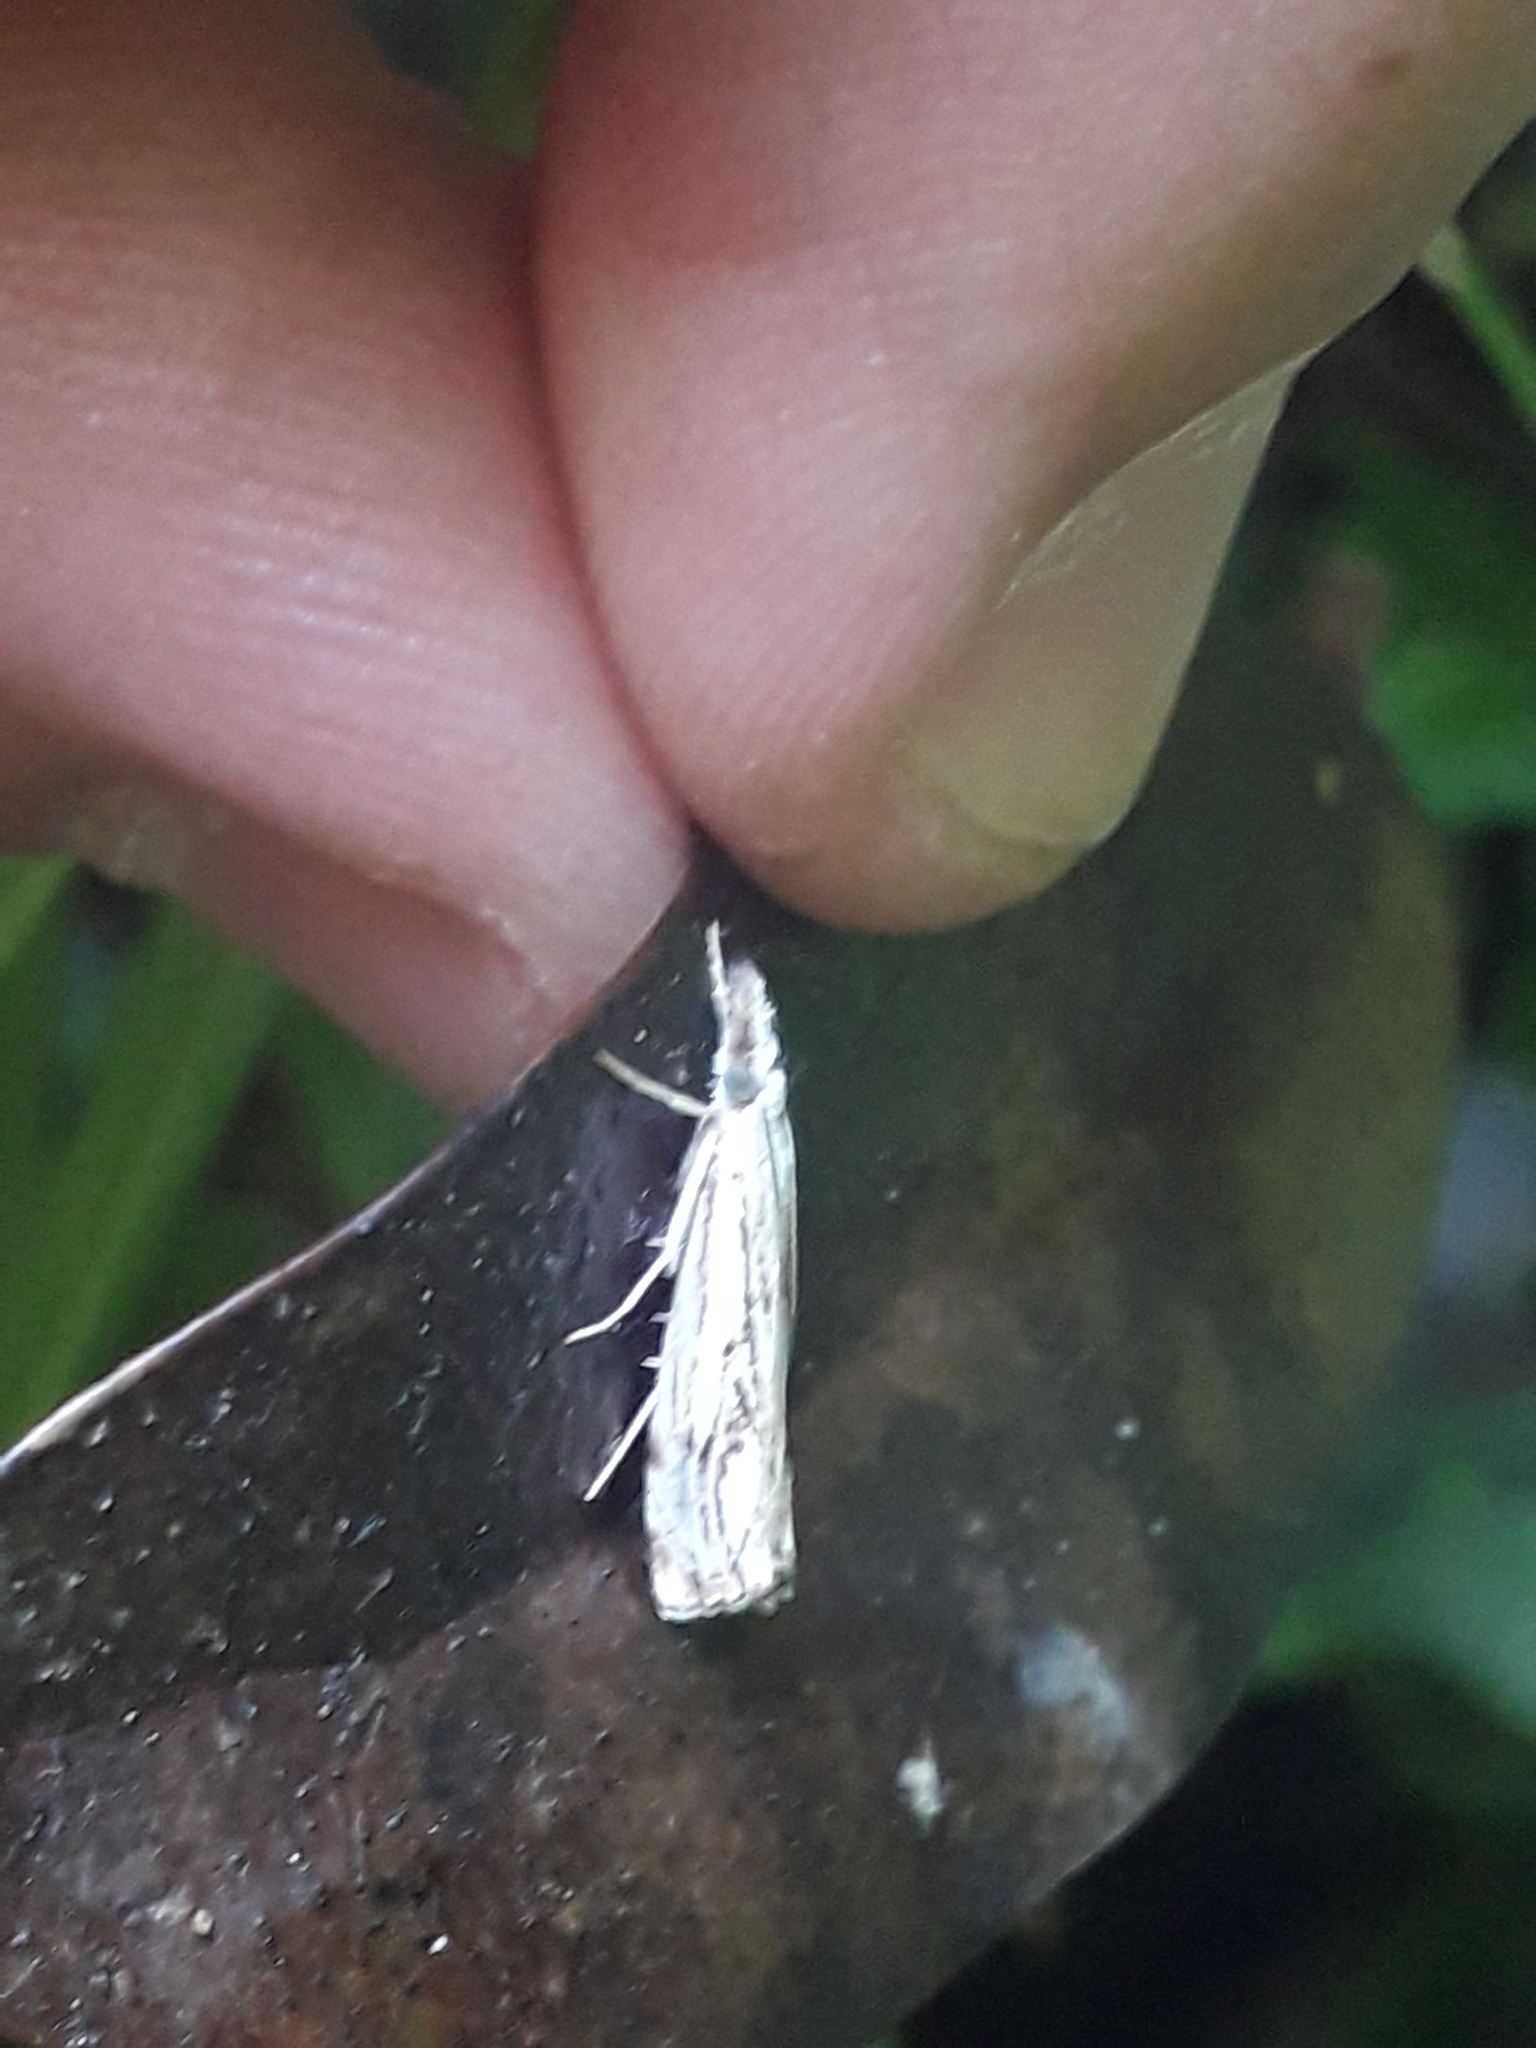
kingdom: Animalia
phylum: Arthropoda
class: Insecta
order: Lepidoptera
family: Crambidae
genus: Catoptria
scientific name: Catoptria falsella
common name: Chequered grass-veneer
